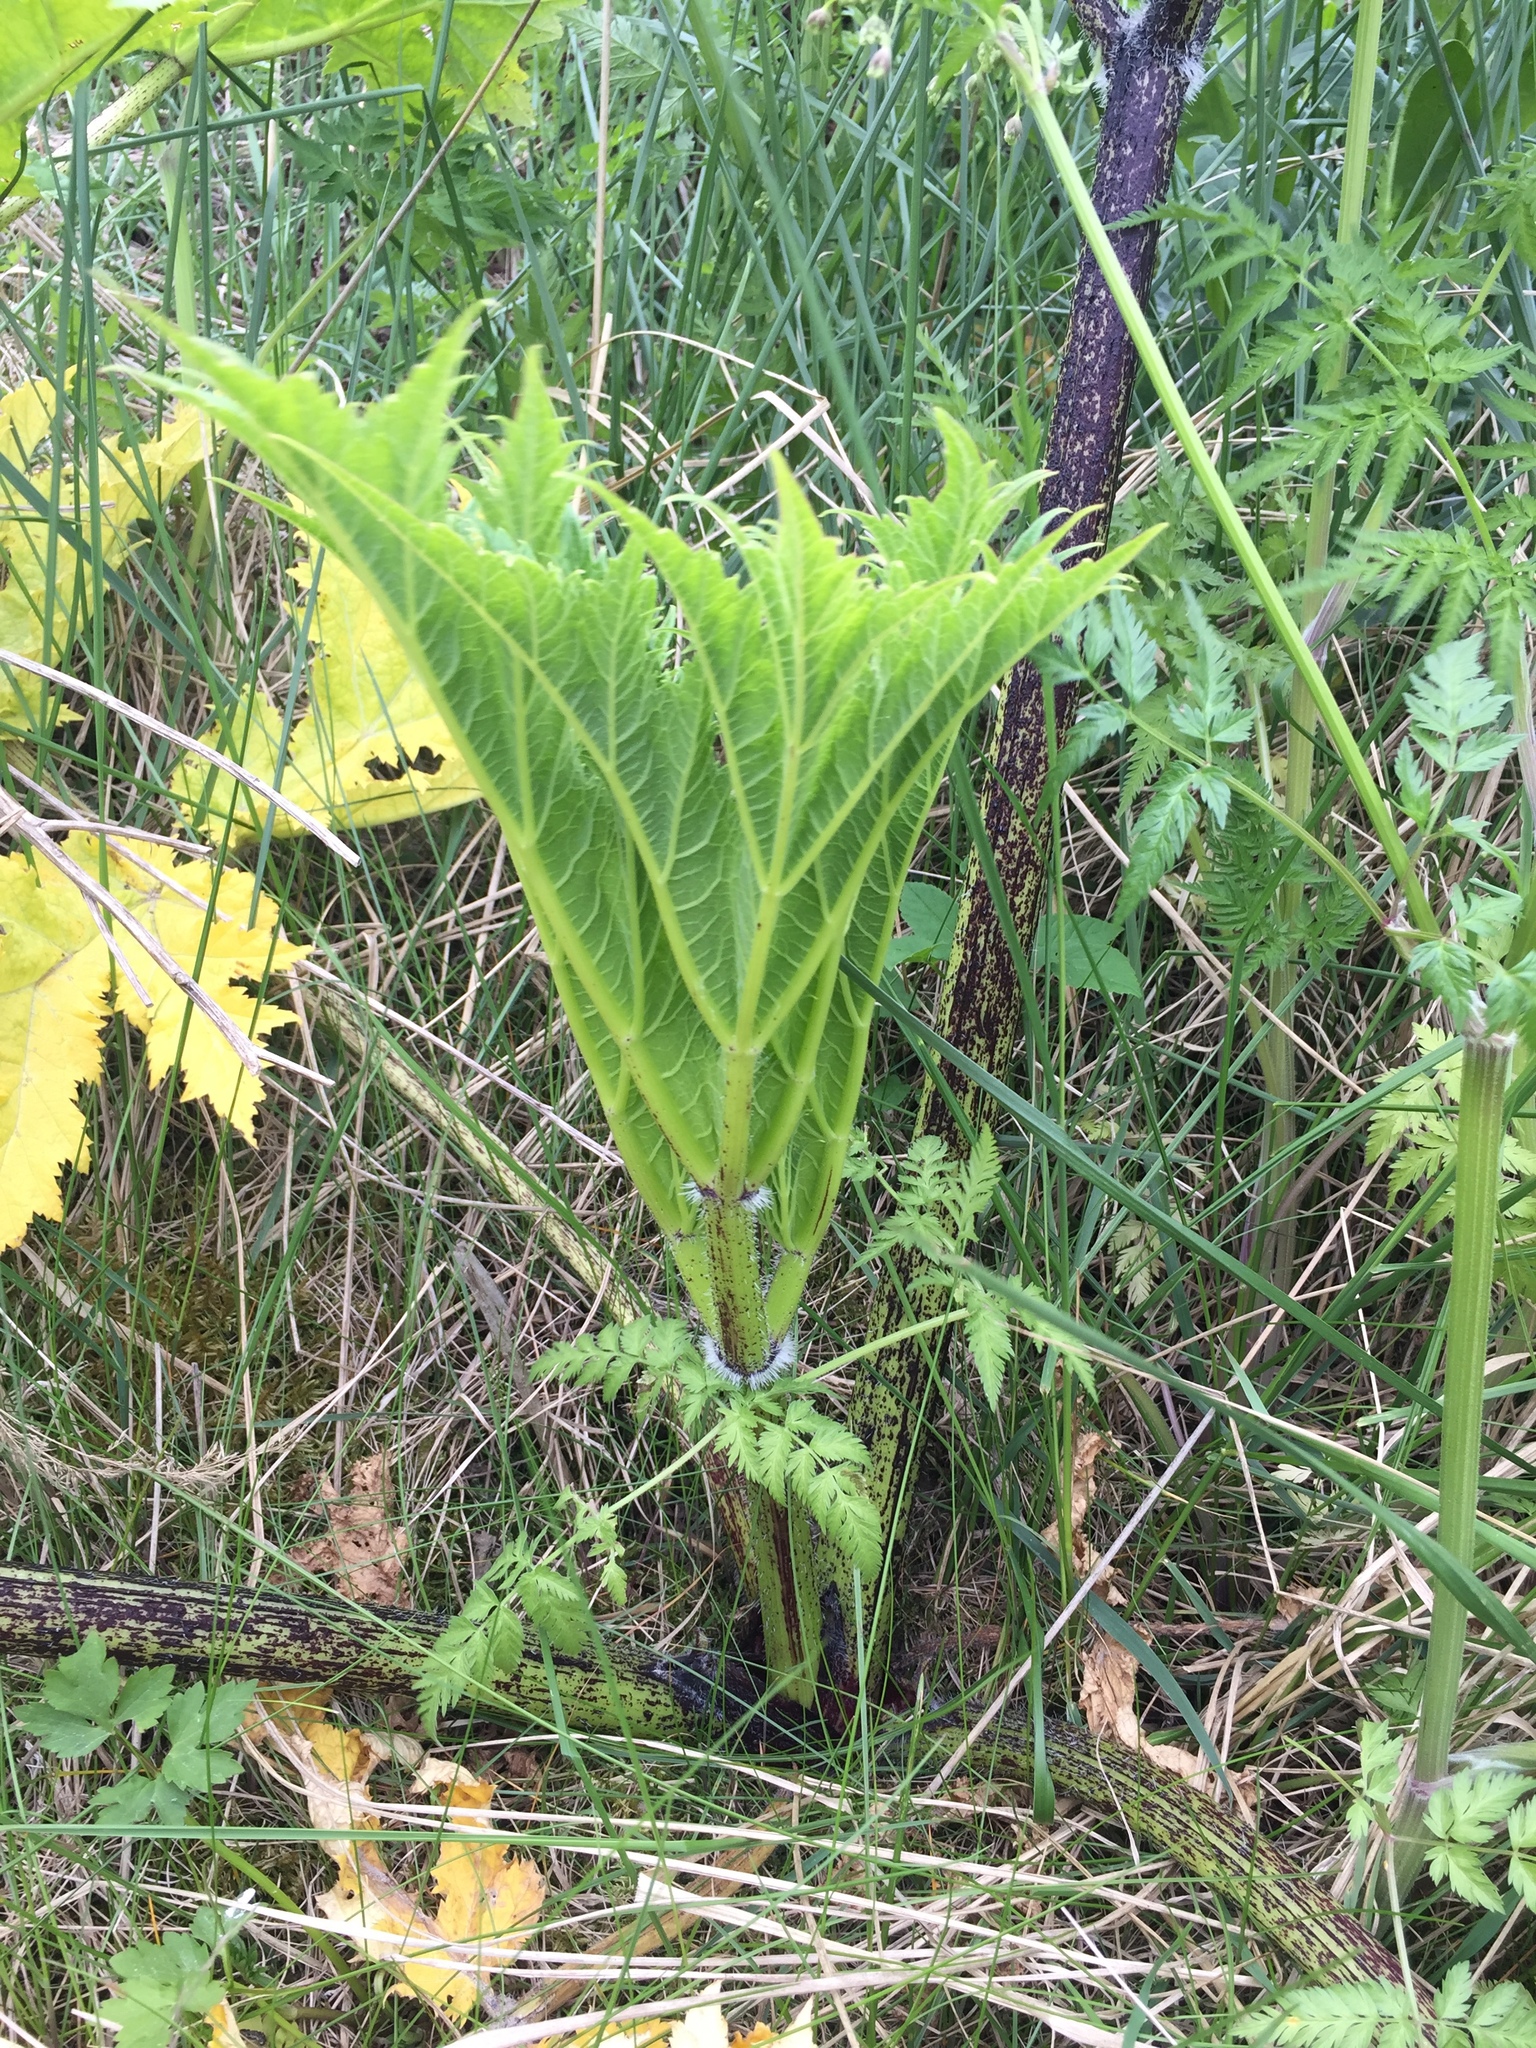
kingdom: Plantae
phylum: Tracheophyta
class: Magnoliopsida
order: Apiales
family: Apiaceae
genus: Heracleum
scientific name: Heracleum mantegazzianum
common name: Giant hogweed
